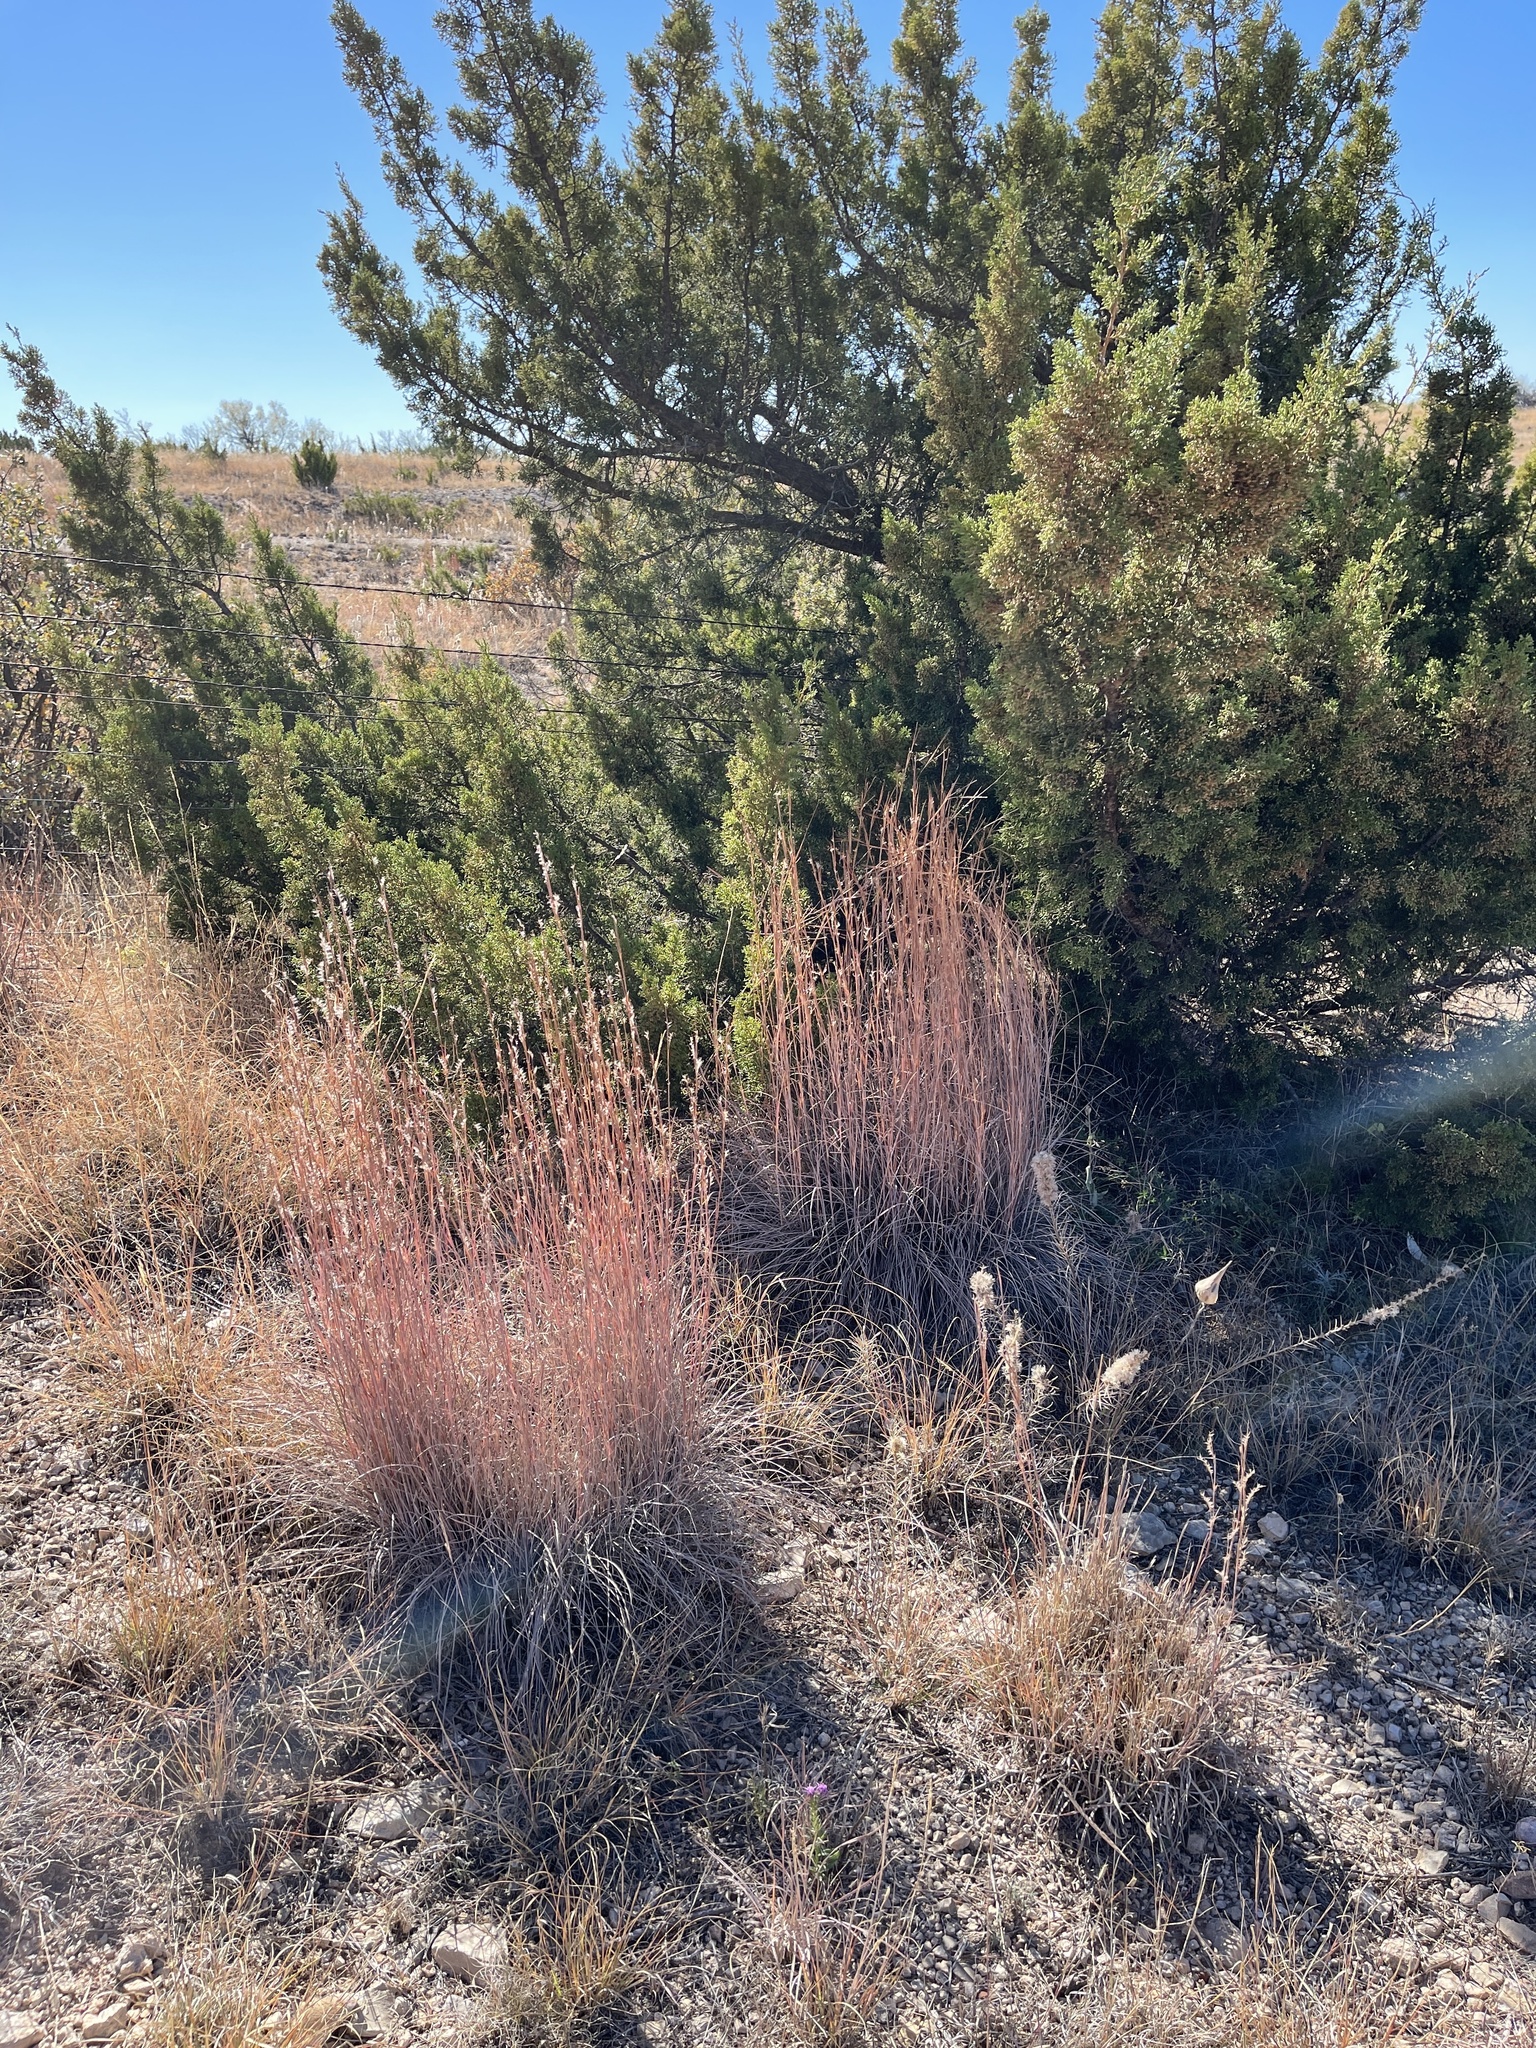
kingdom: Plantae
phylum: Tracheophyta
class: Liliopsida
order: Poales
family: Poaceae
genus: Schizachyrium
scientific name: Schizachyrium scoparium
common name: Little bluestem
